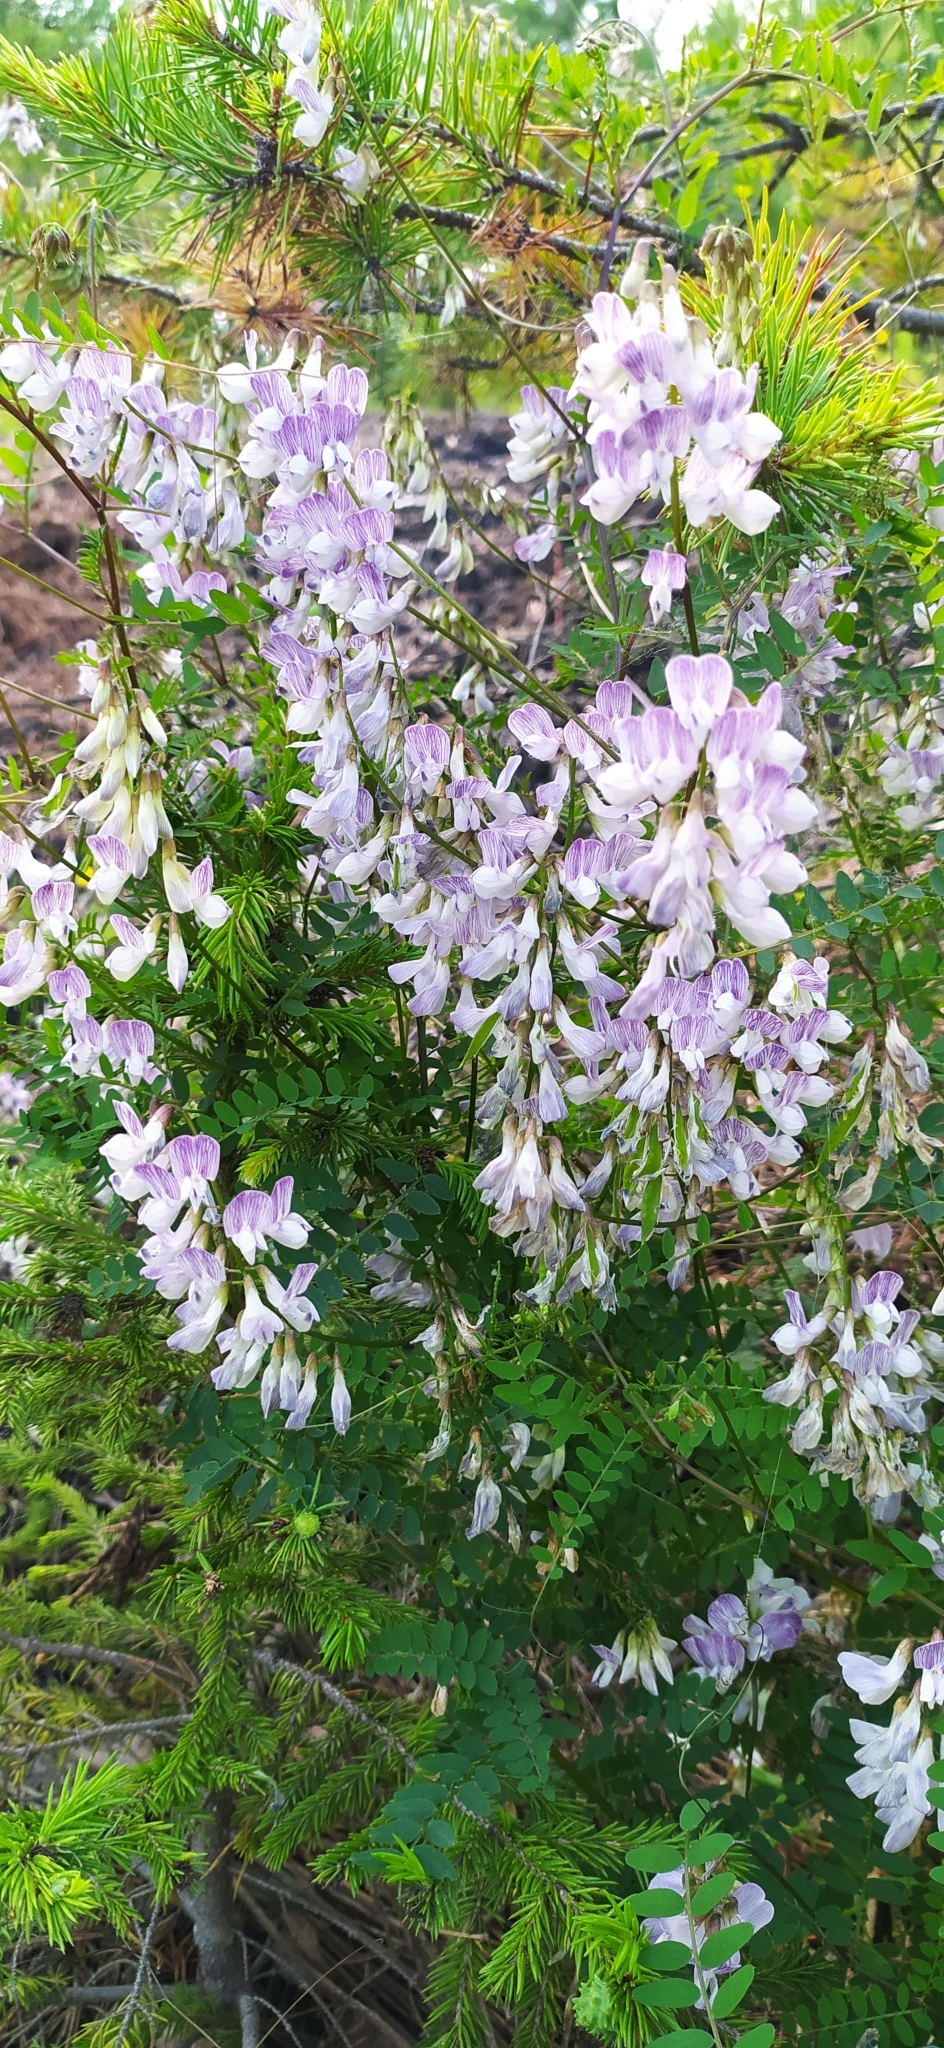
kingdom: Plantae
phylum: Tracheophyta
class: Magnoliopsida
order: Fabales
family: Fabaceae
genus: Vicia
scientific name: Vicia sylvatica
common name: Wood vetch
